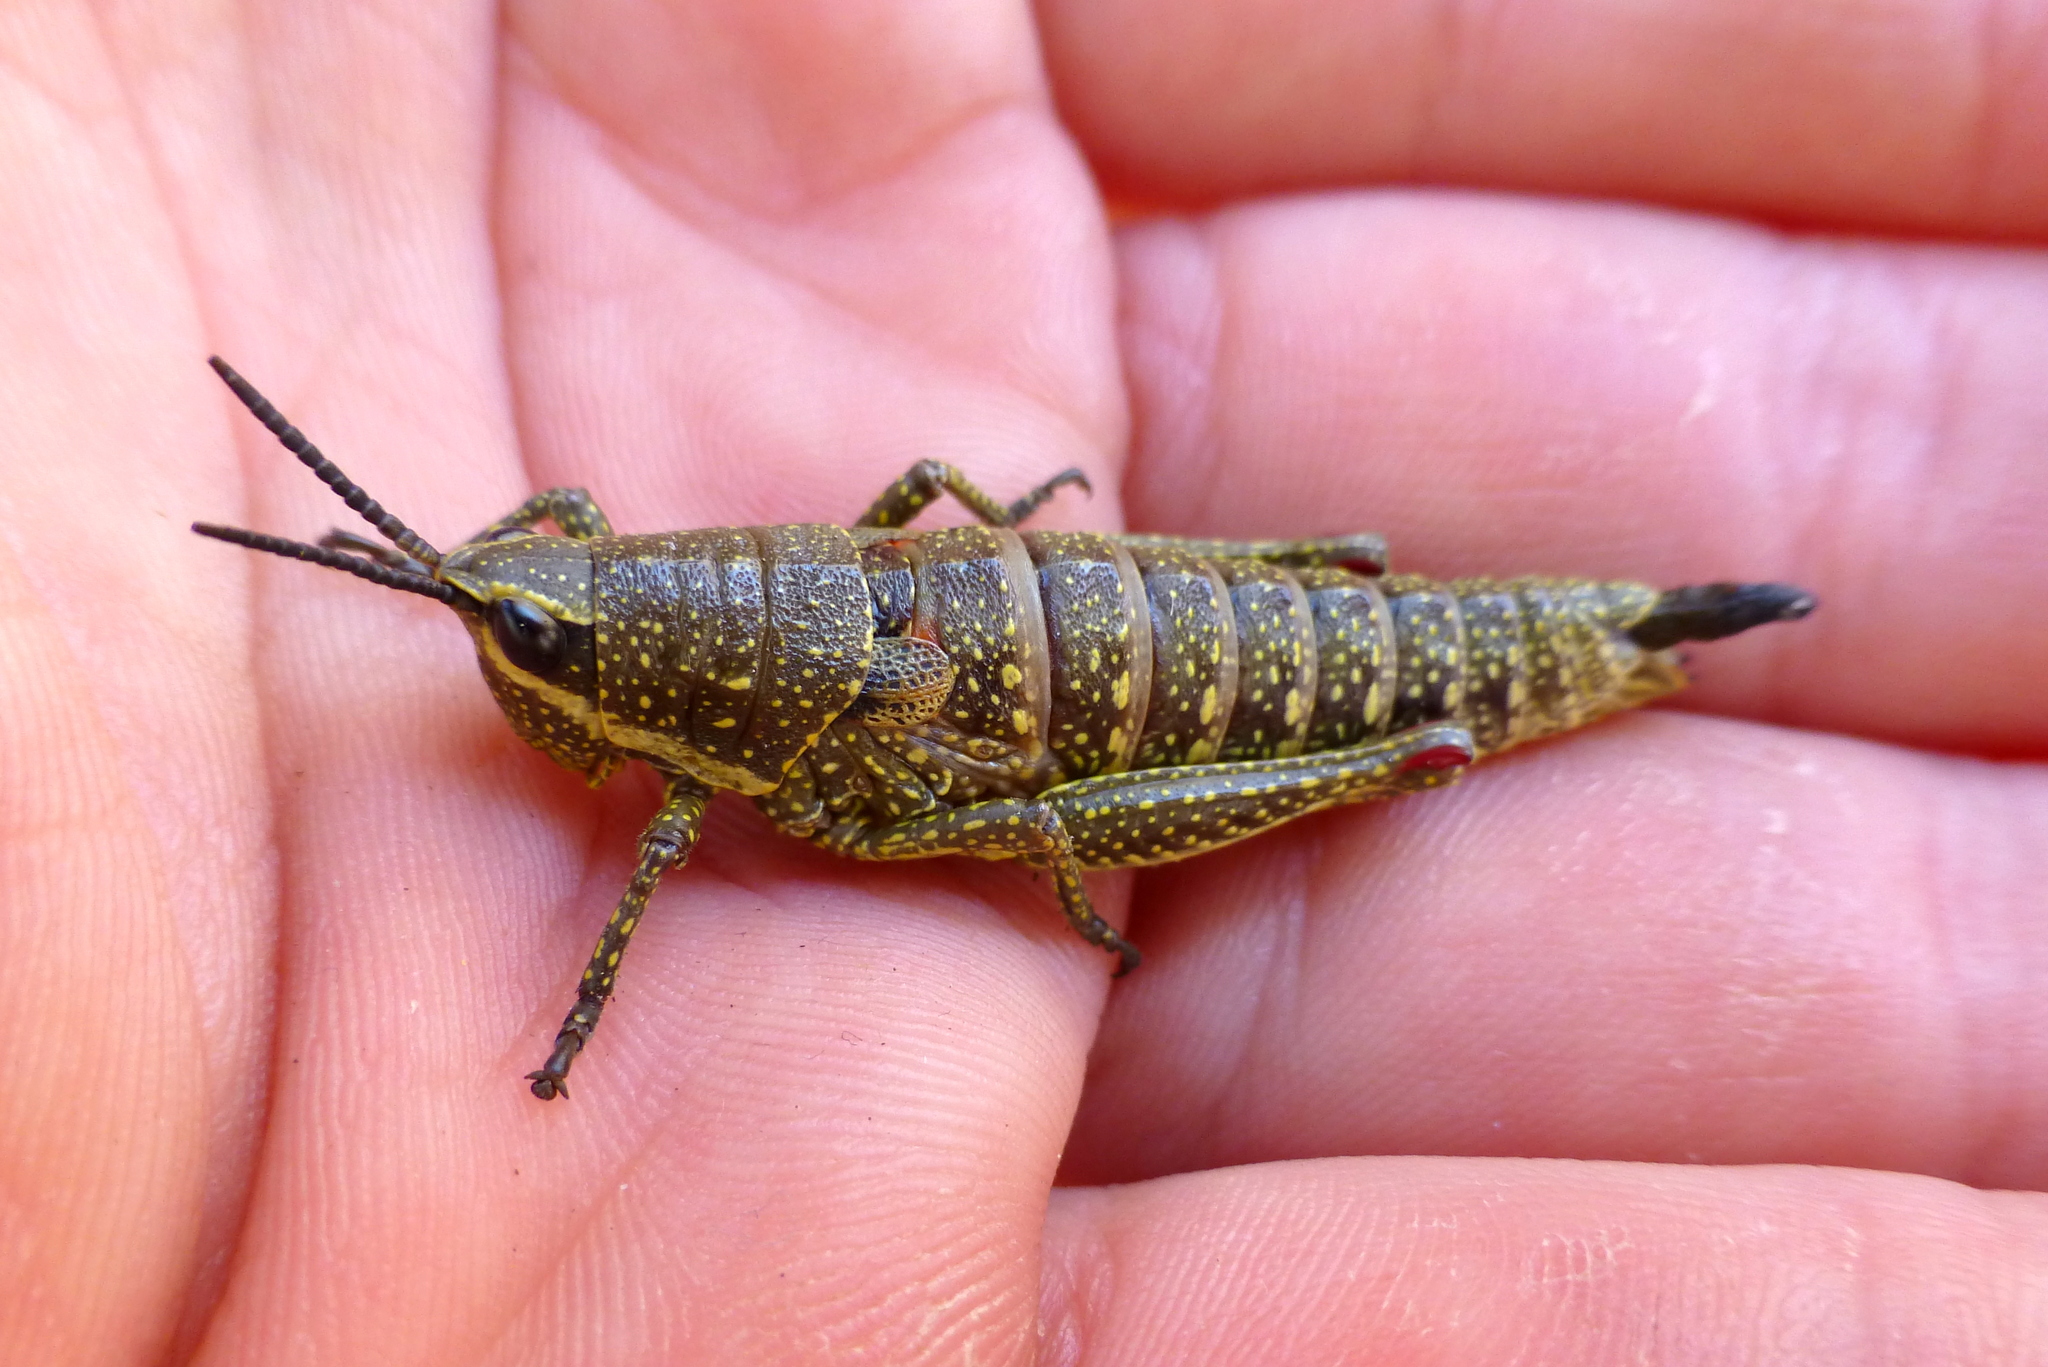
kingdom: Animalia
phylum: Arthropoda
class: Insecta
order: Orthoptera
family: Pyrgomorphidae
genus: Monistria
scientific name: Monistria concinna
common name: Southern pyrgomorph
